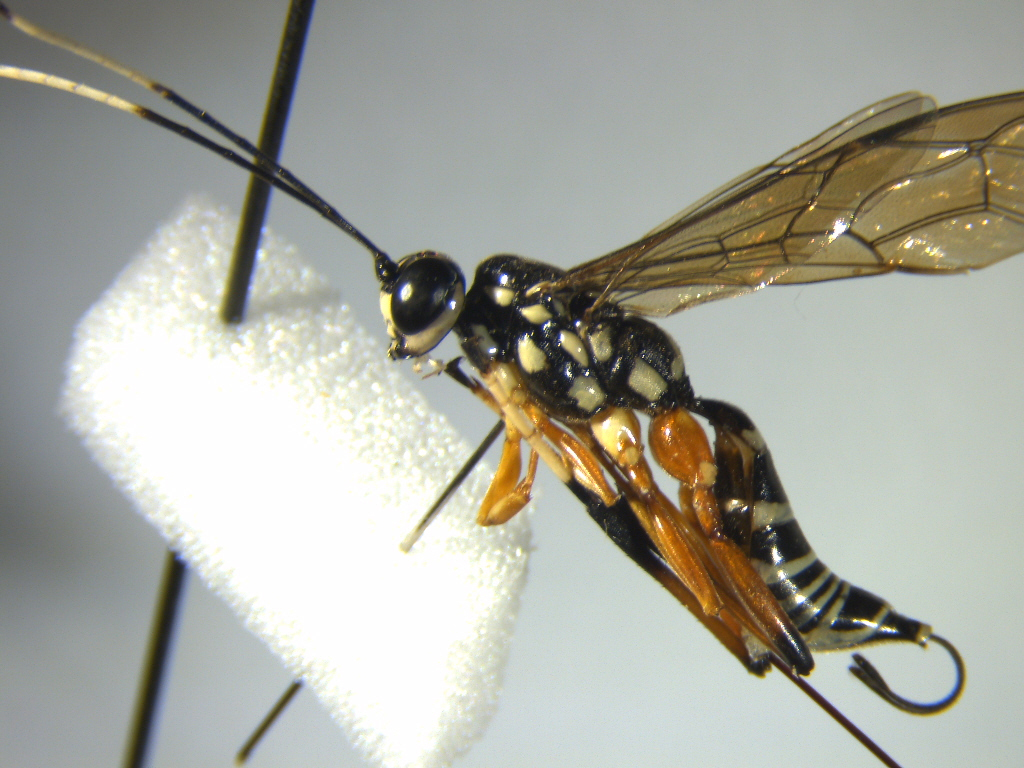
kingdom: Animalia
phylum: Arthropoda
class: Insecta
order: Hymenoptera
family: Ichneumonidae
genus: Xanthocryptus
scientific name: Xanthocryptus novozealandicus
